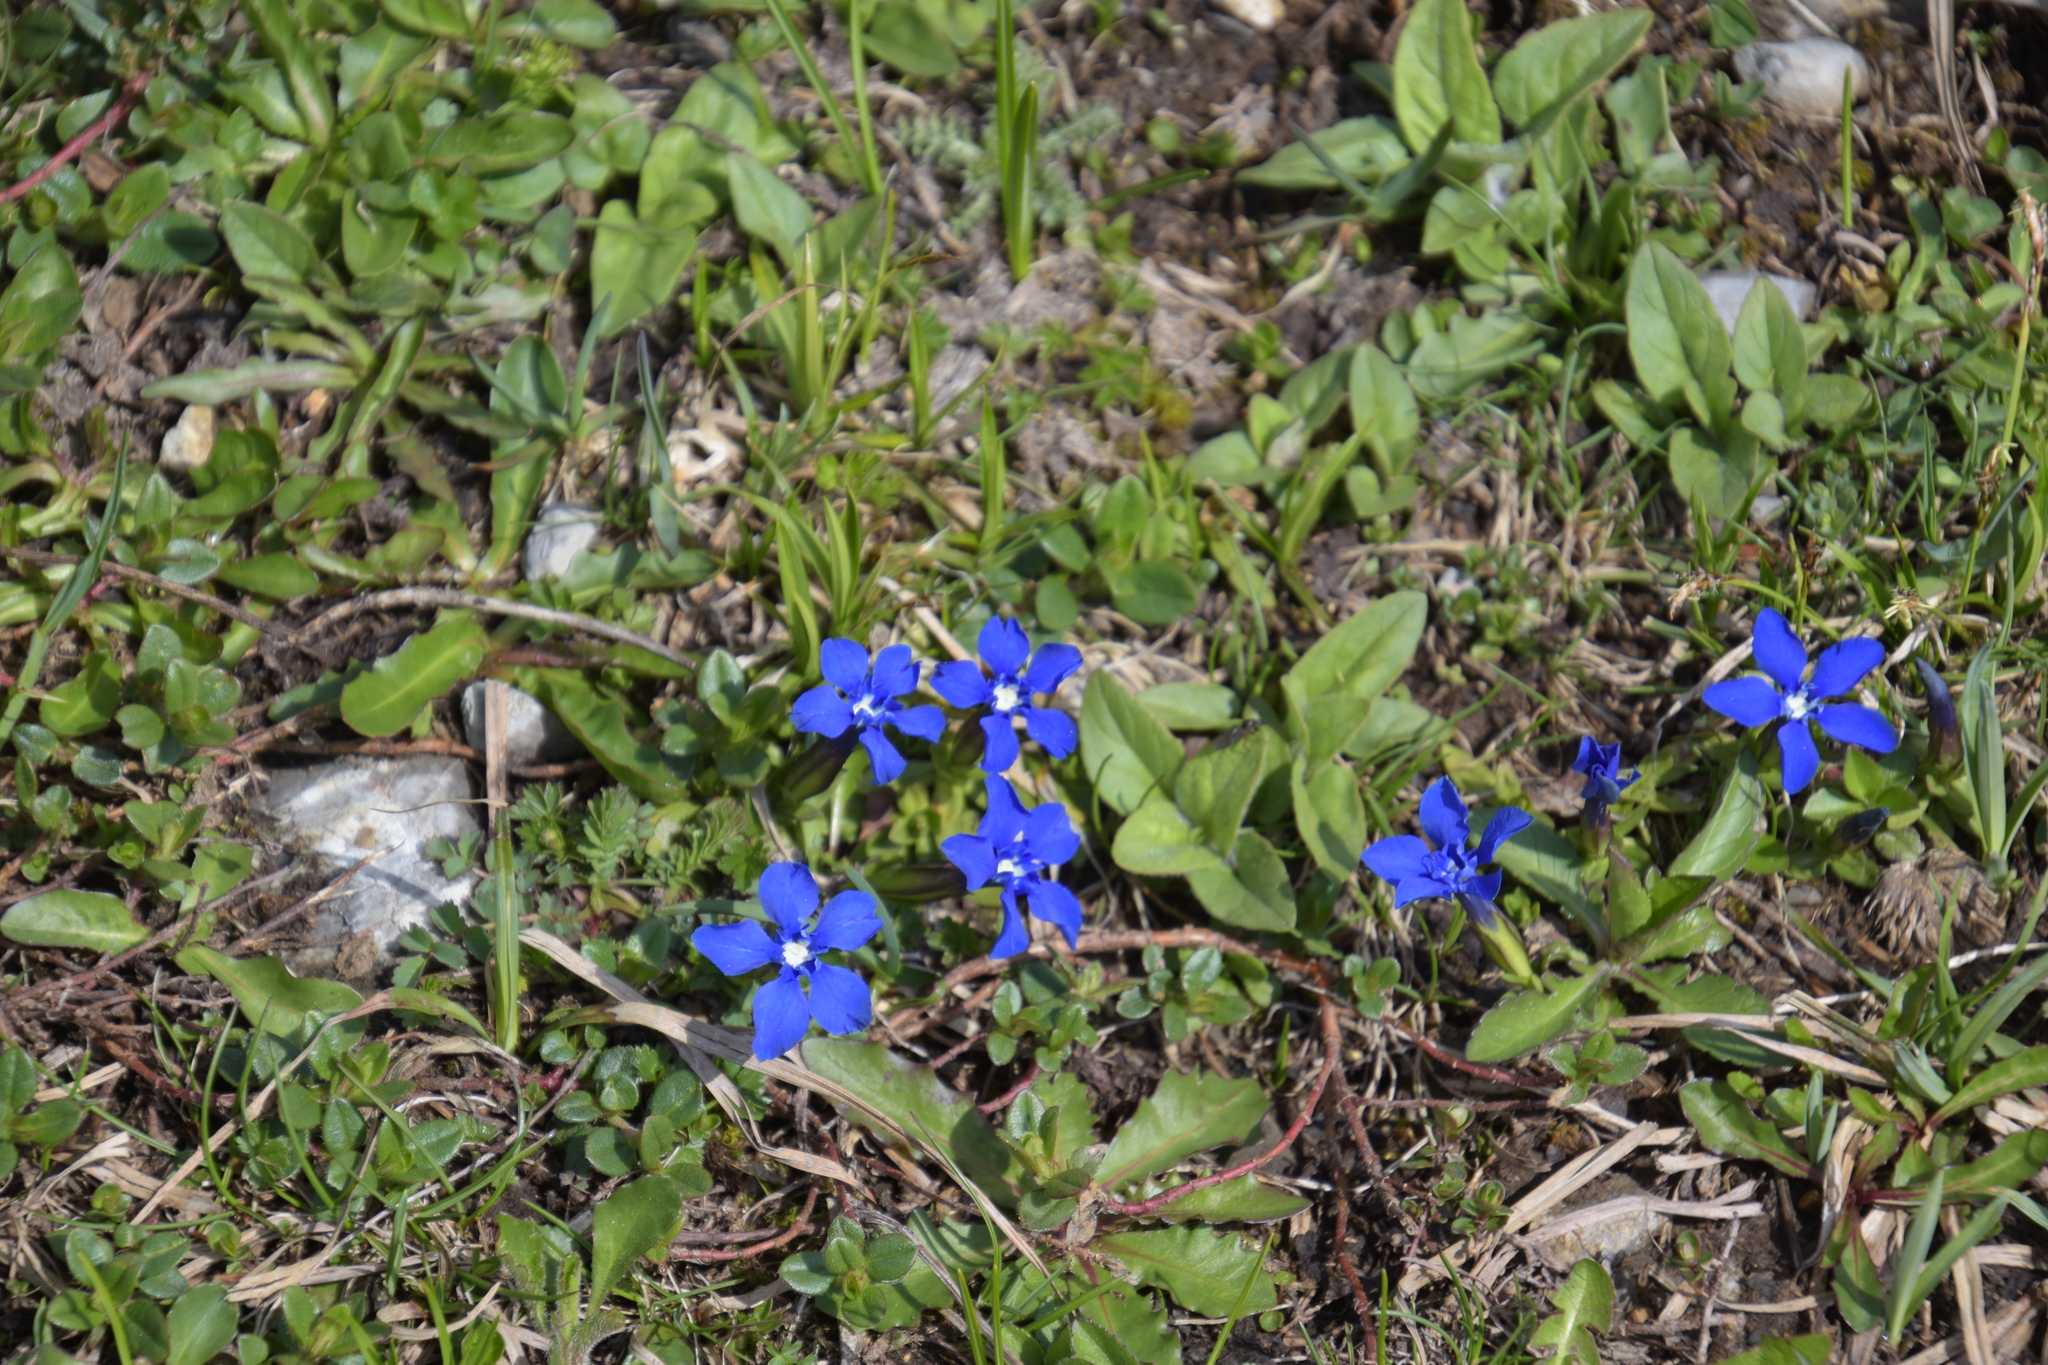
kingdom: Plantae
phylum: Tracheophyta
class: Magnoliopsida
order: Gentianales
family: Gentianaceae
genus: Gentiana
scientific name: Gentiana verna
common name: Spring gentian
